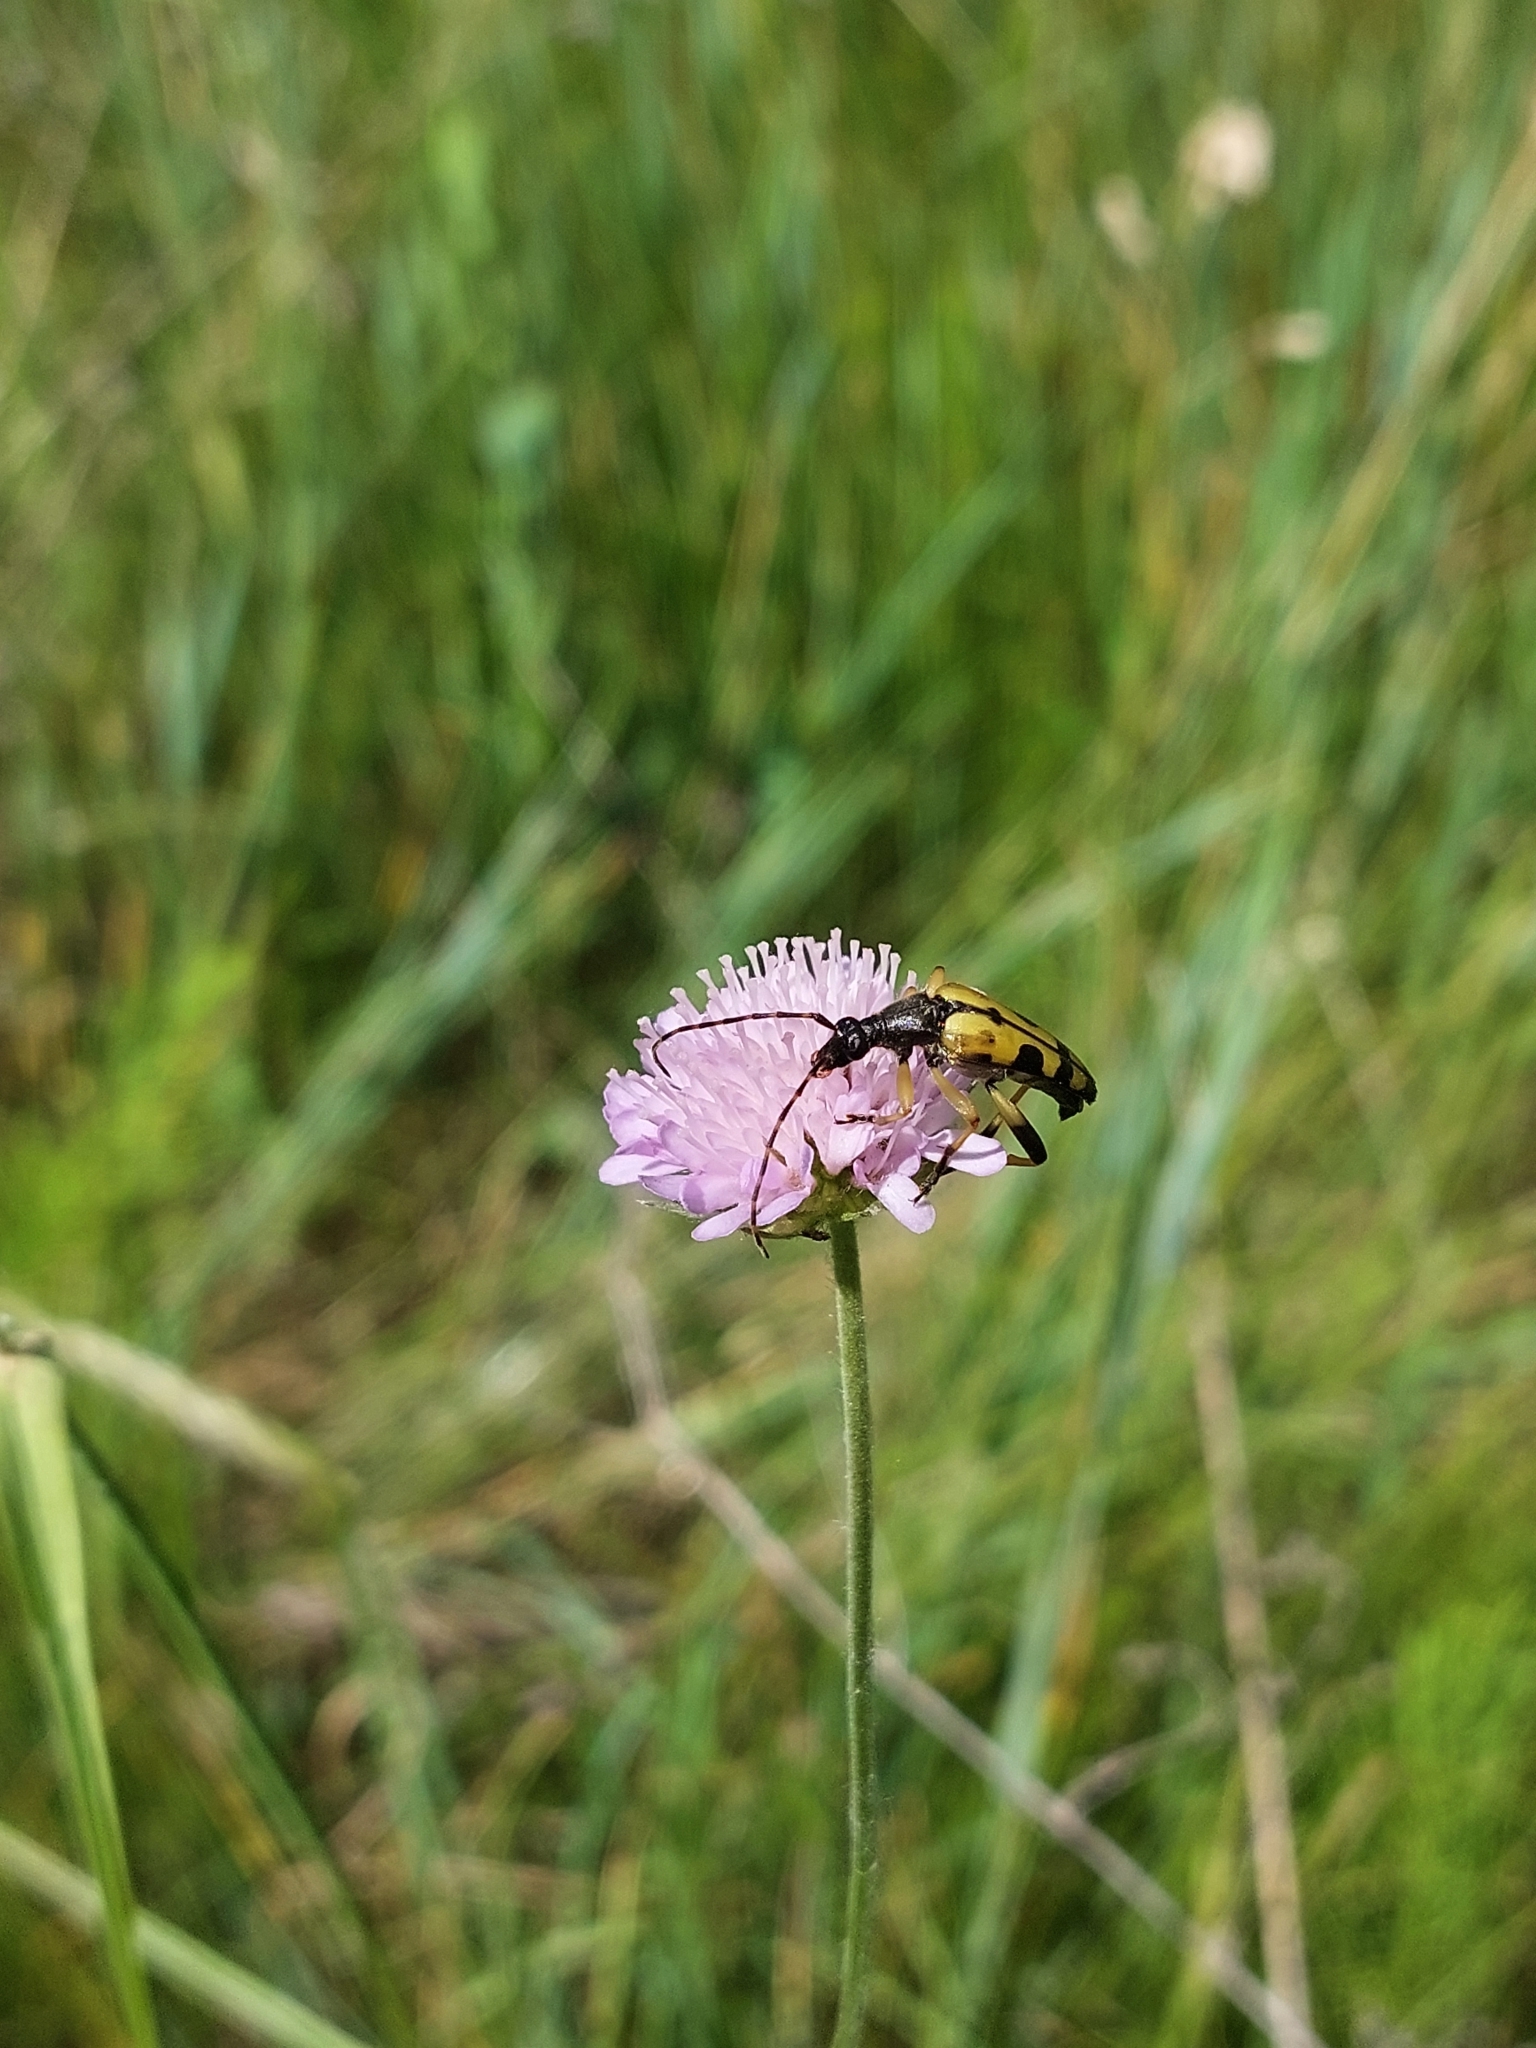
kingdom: Animalia
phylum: Arthropoda
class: Insecta
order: Coleoptera
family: Cerambycidae
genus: Rutpela
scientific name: Rutpela maculata
